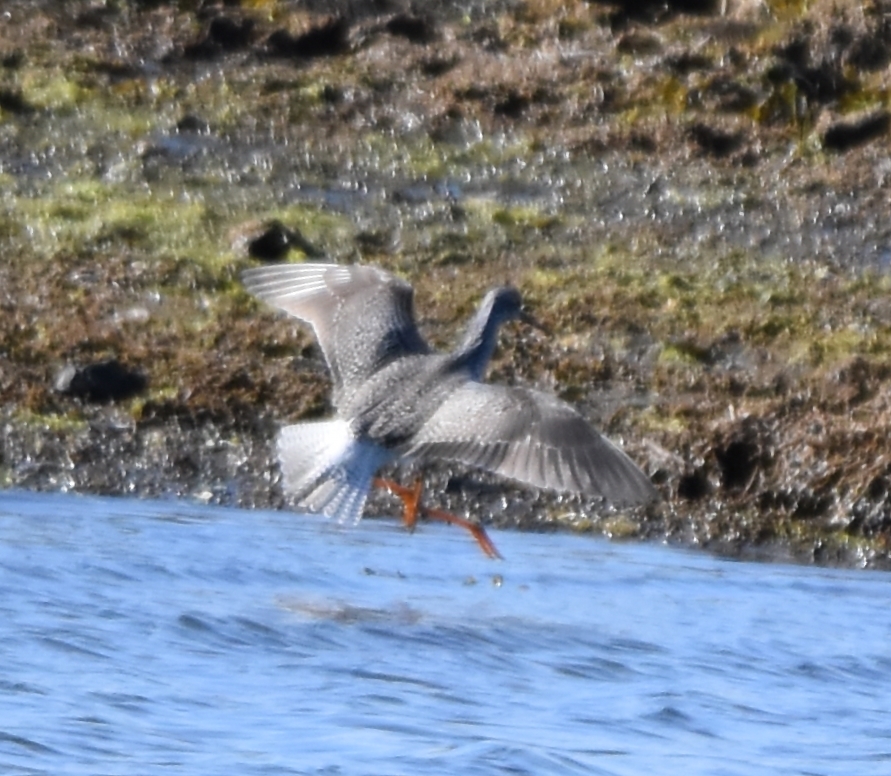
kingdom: Animalia
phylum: Chordata
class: Aves
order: Charadriiformes
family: Scolopacidae
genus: Tringa
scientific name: Tringa melanoleuca
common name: Greater yellowlegs
